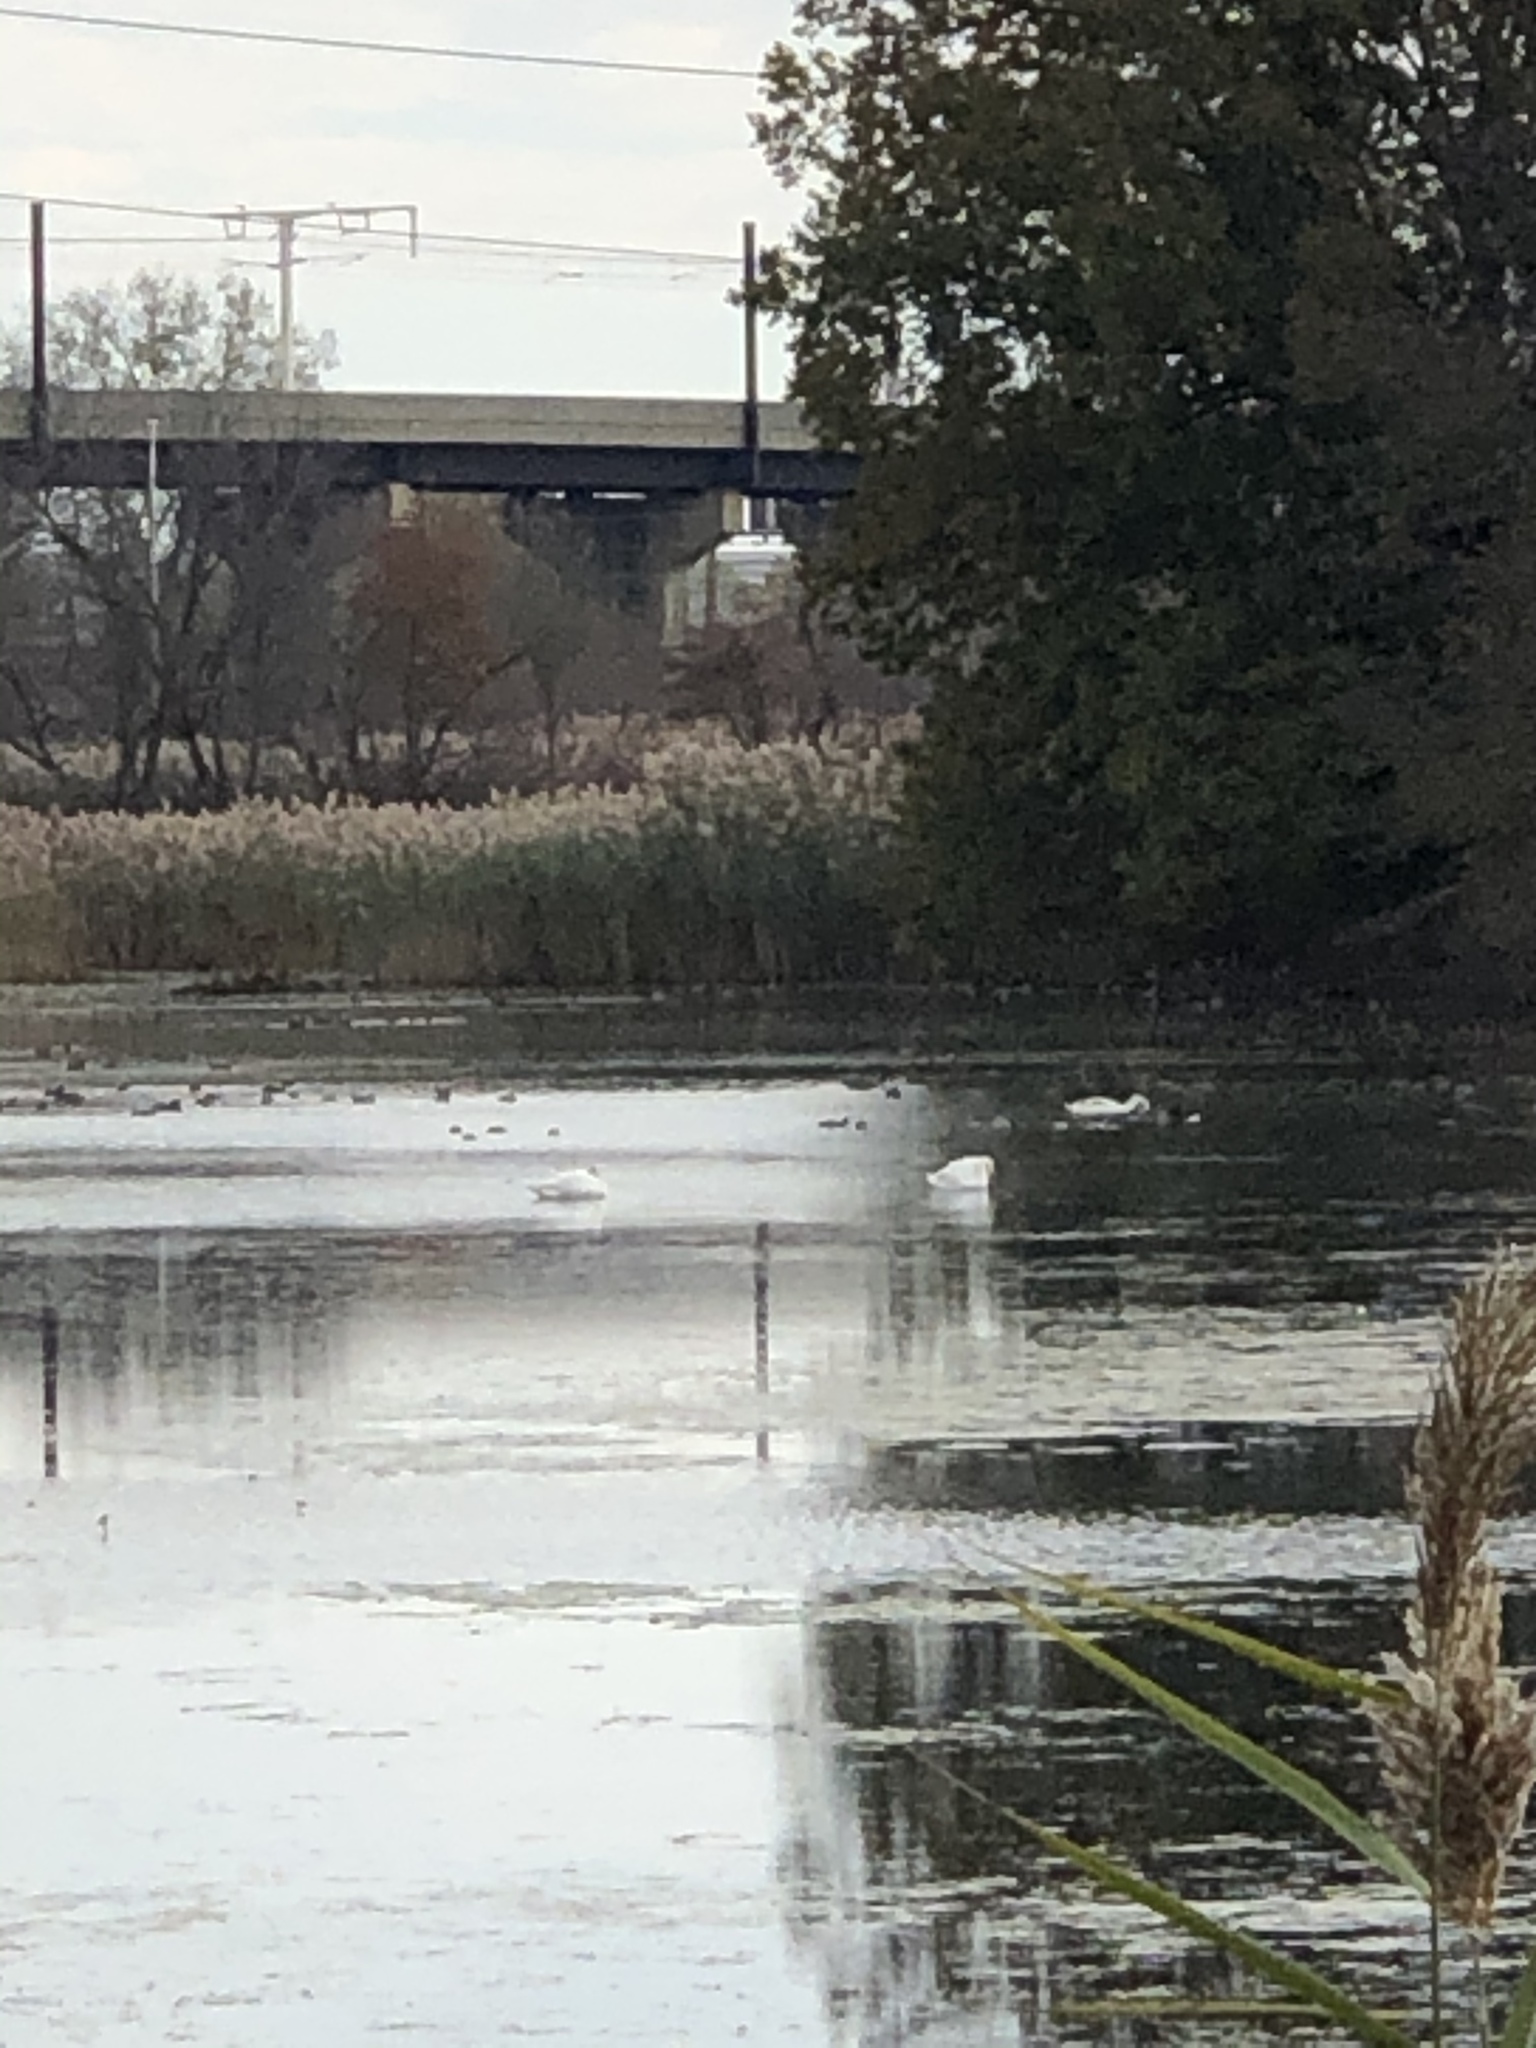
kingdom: Animalia
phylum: Chordata
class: Aves
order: Anseriformes
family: Anatidae
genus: Cygnus
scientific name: Cygnus
